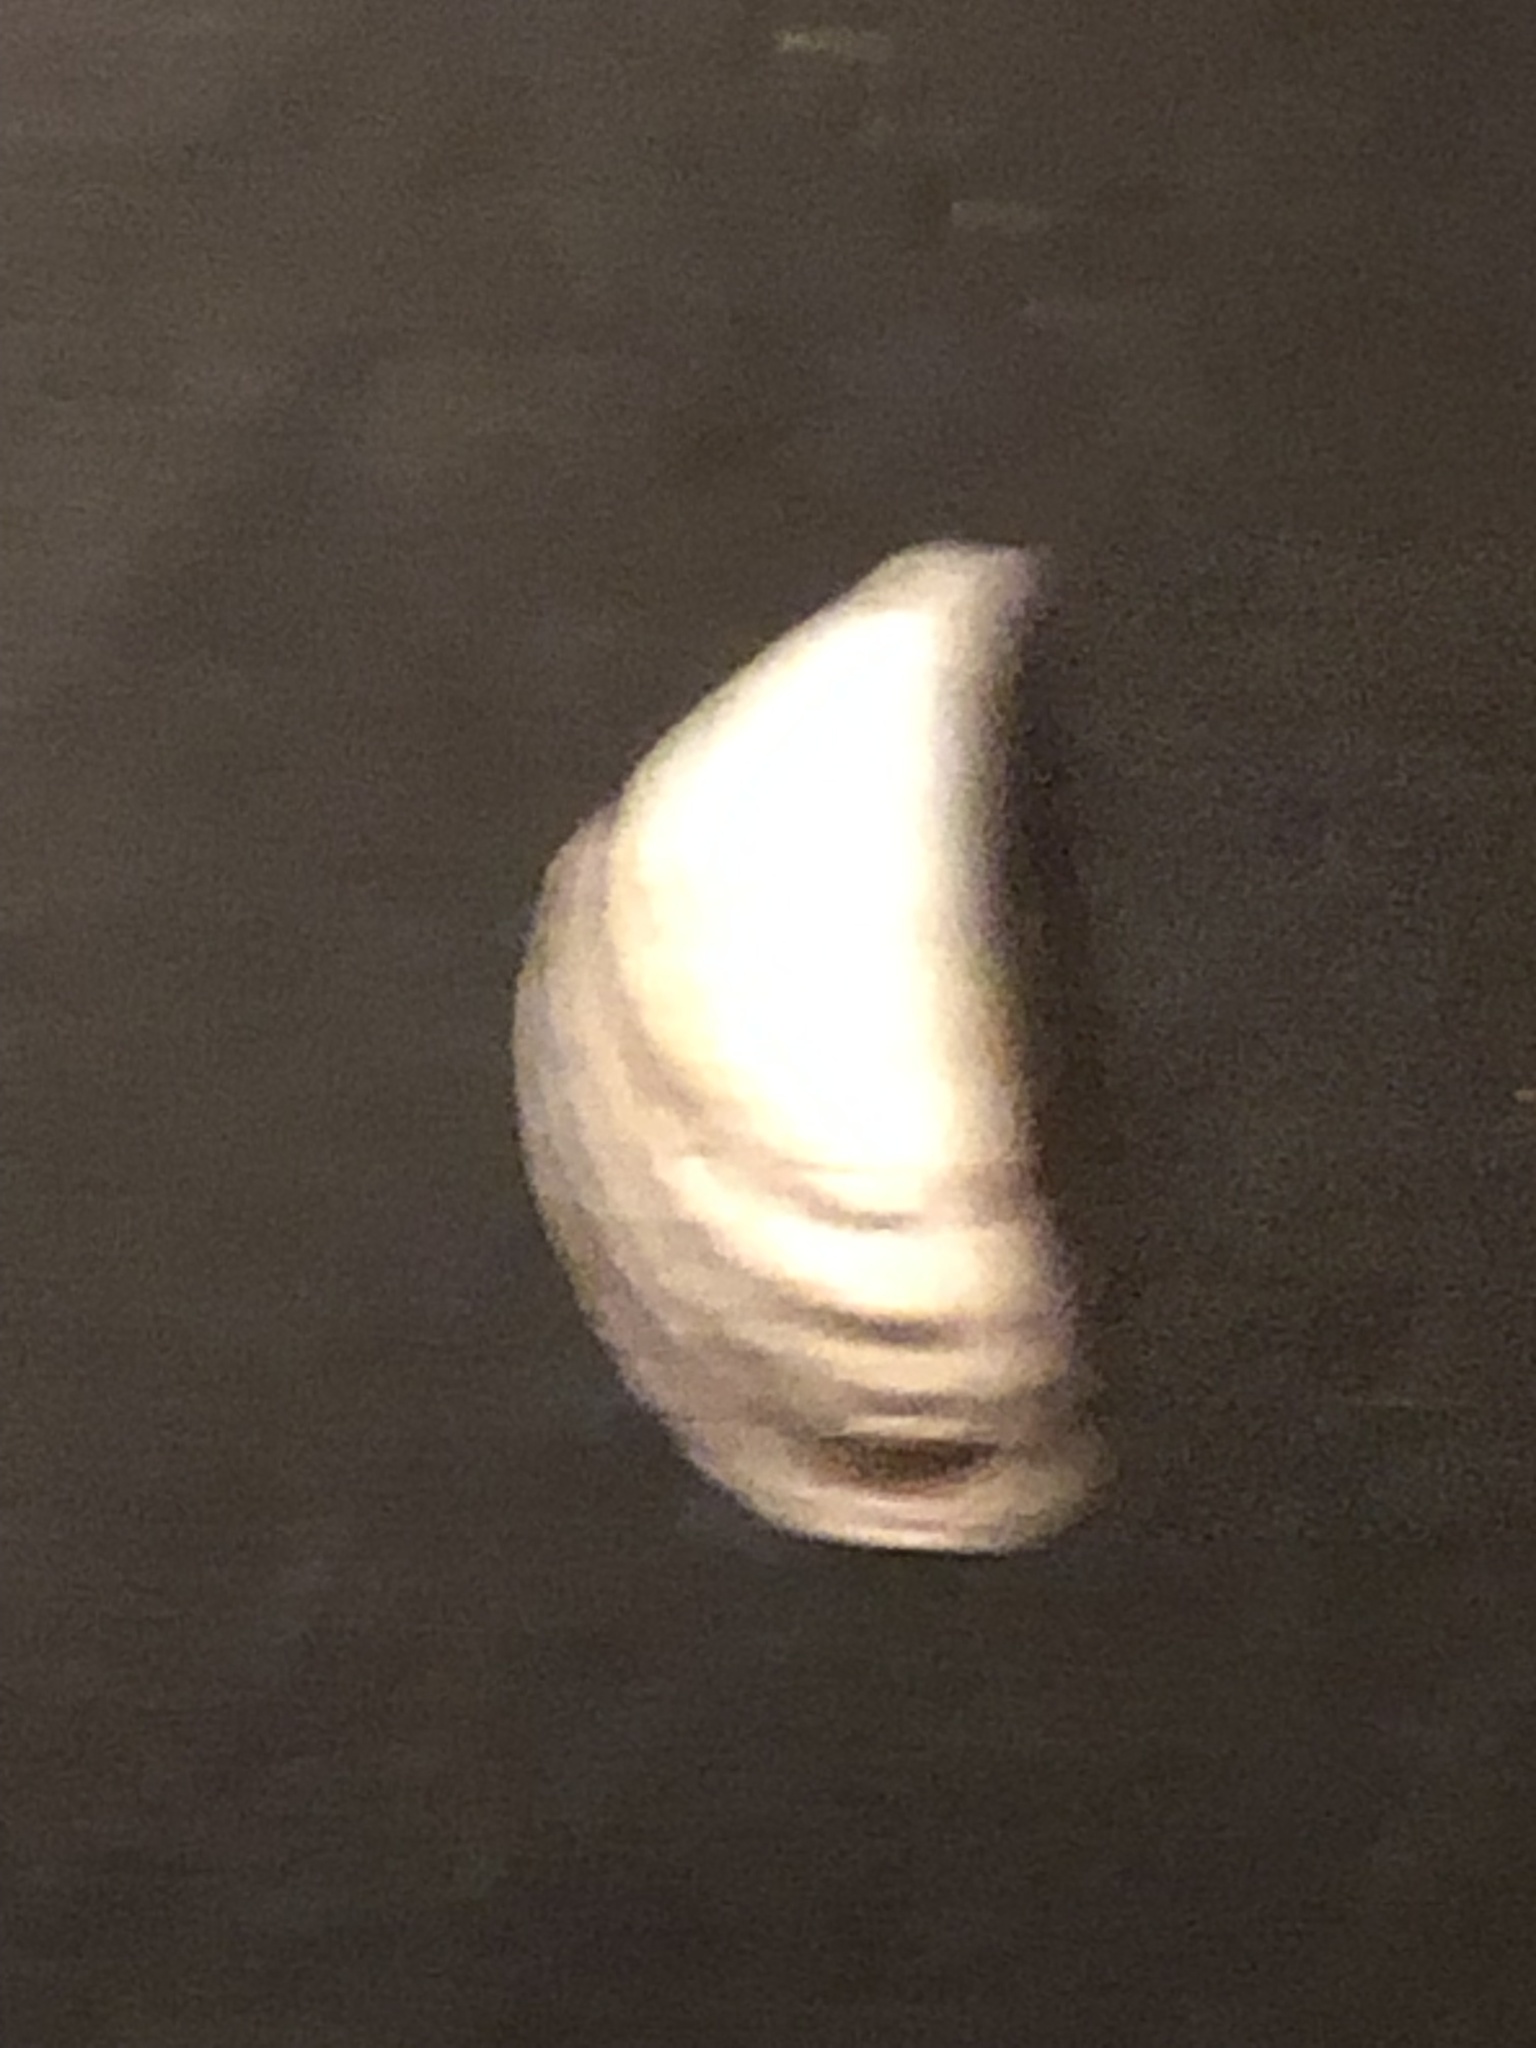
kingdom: Animalia
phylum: Mollusca
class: Bivalvia
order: Myida
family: Dreissenidae
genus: Dreissena
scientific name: Dreissena polymorpha
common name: Zebra mussel
